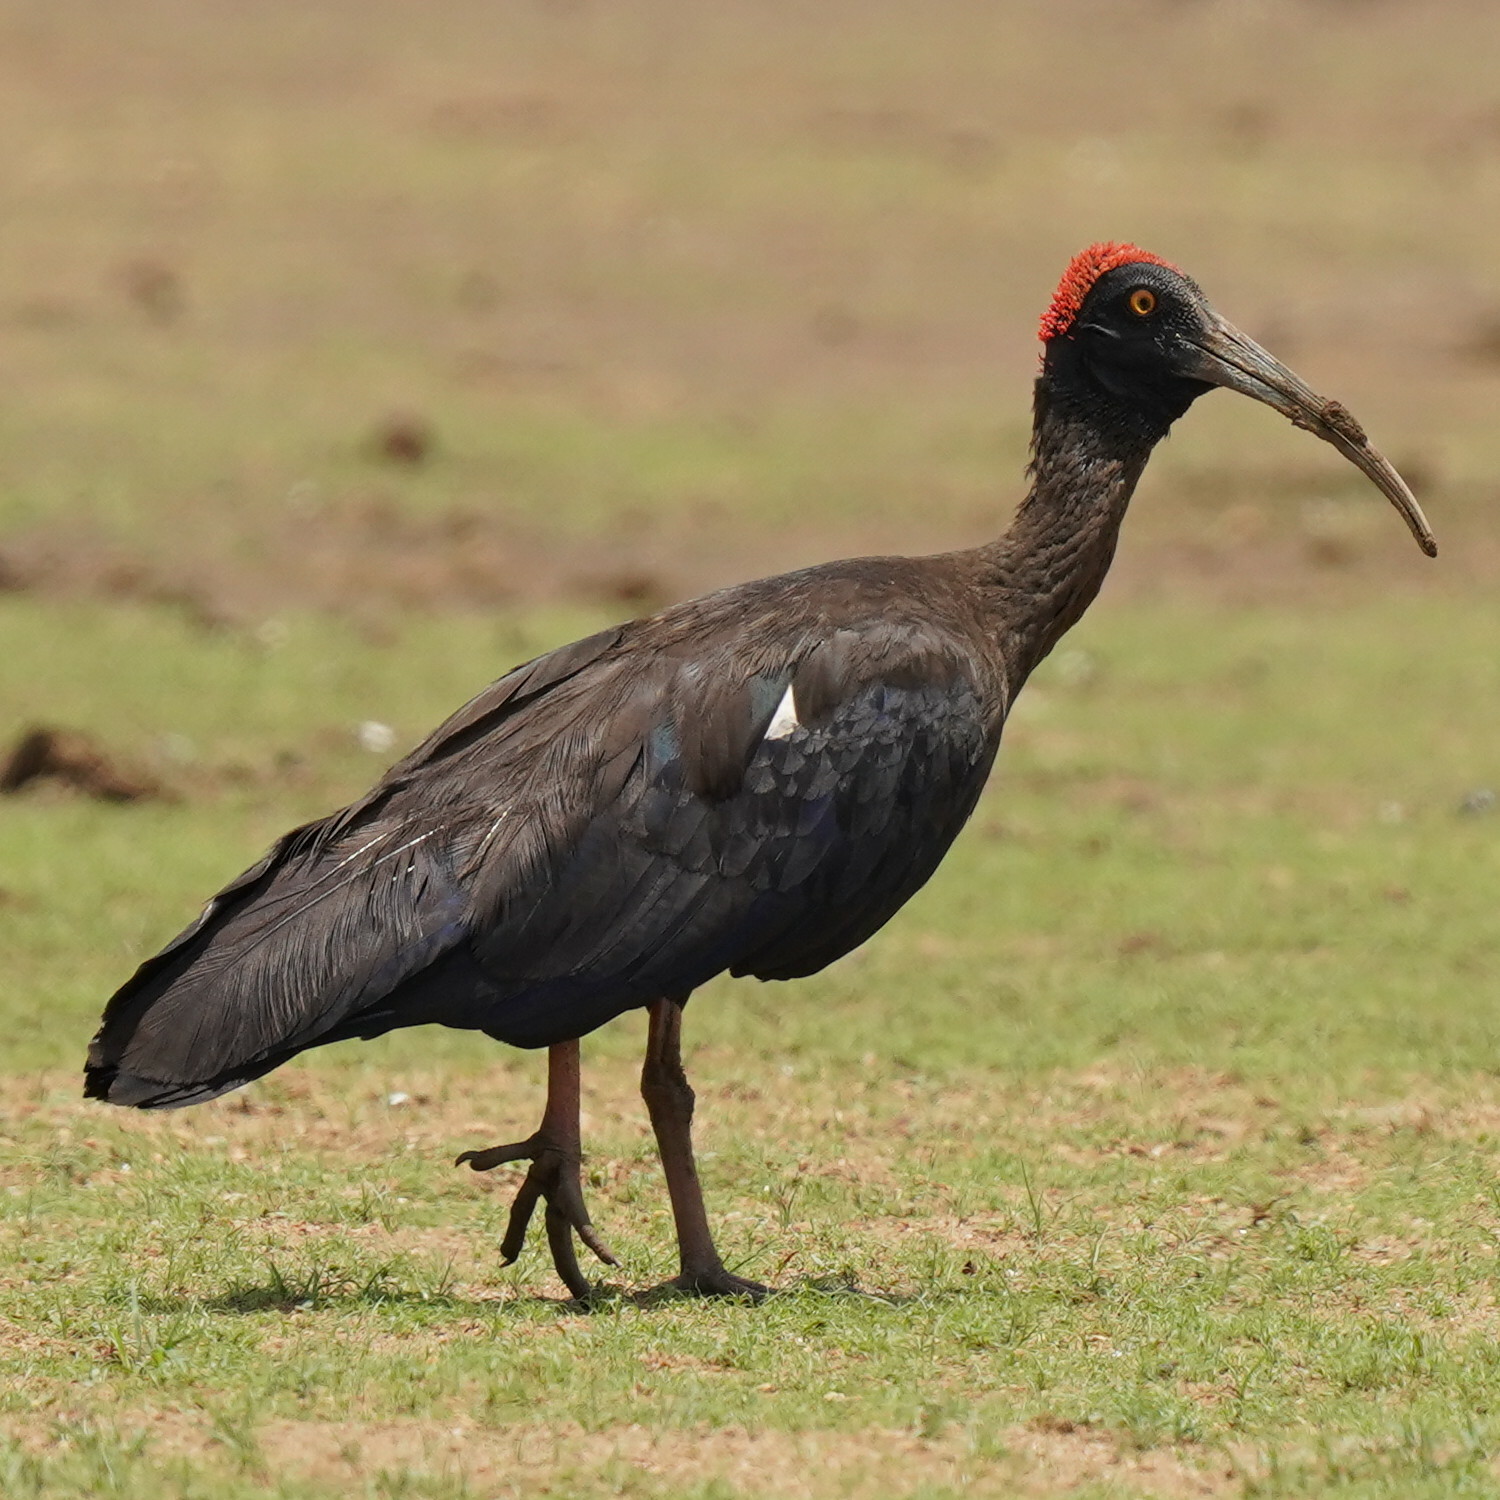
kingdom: Animalia
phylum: Chordata
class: Aves
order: Pelecaniformes
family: Threskiornithidae
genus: Pseudibis
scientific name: Pseudibis papillosa
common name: Red-naped ibis
